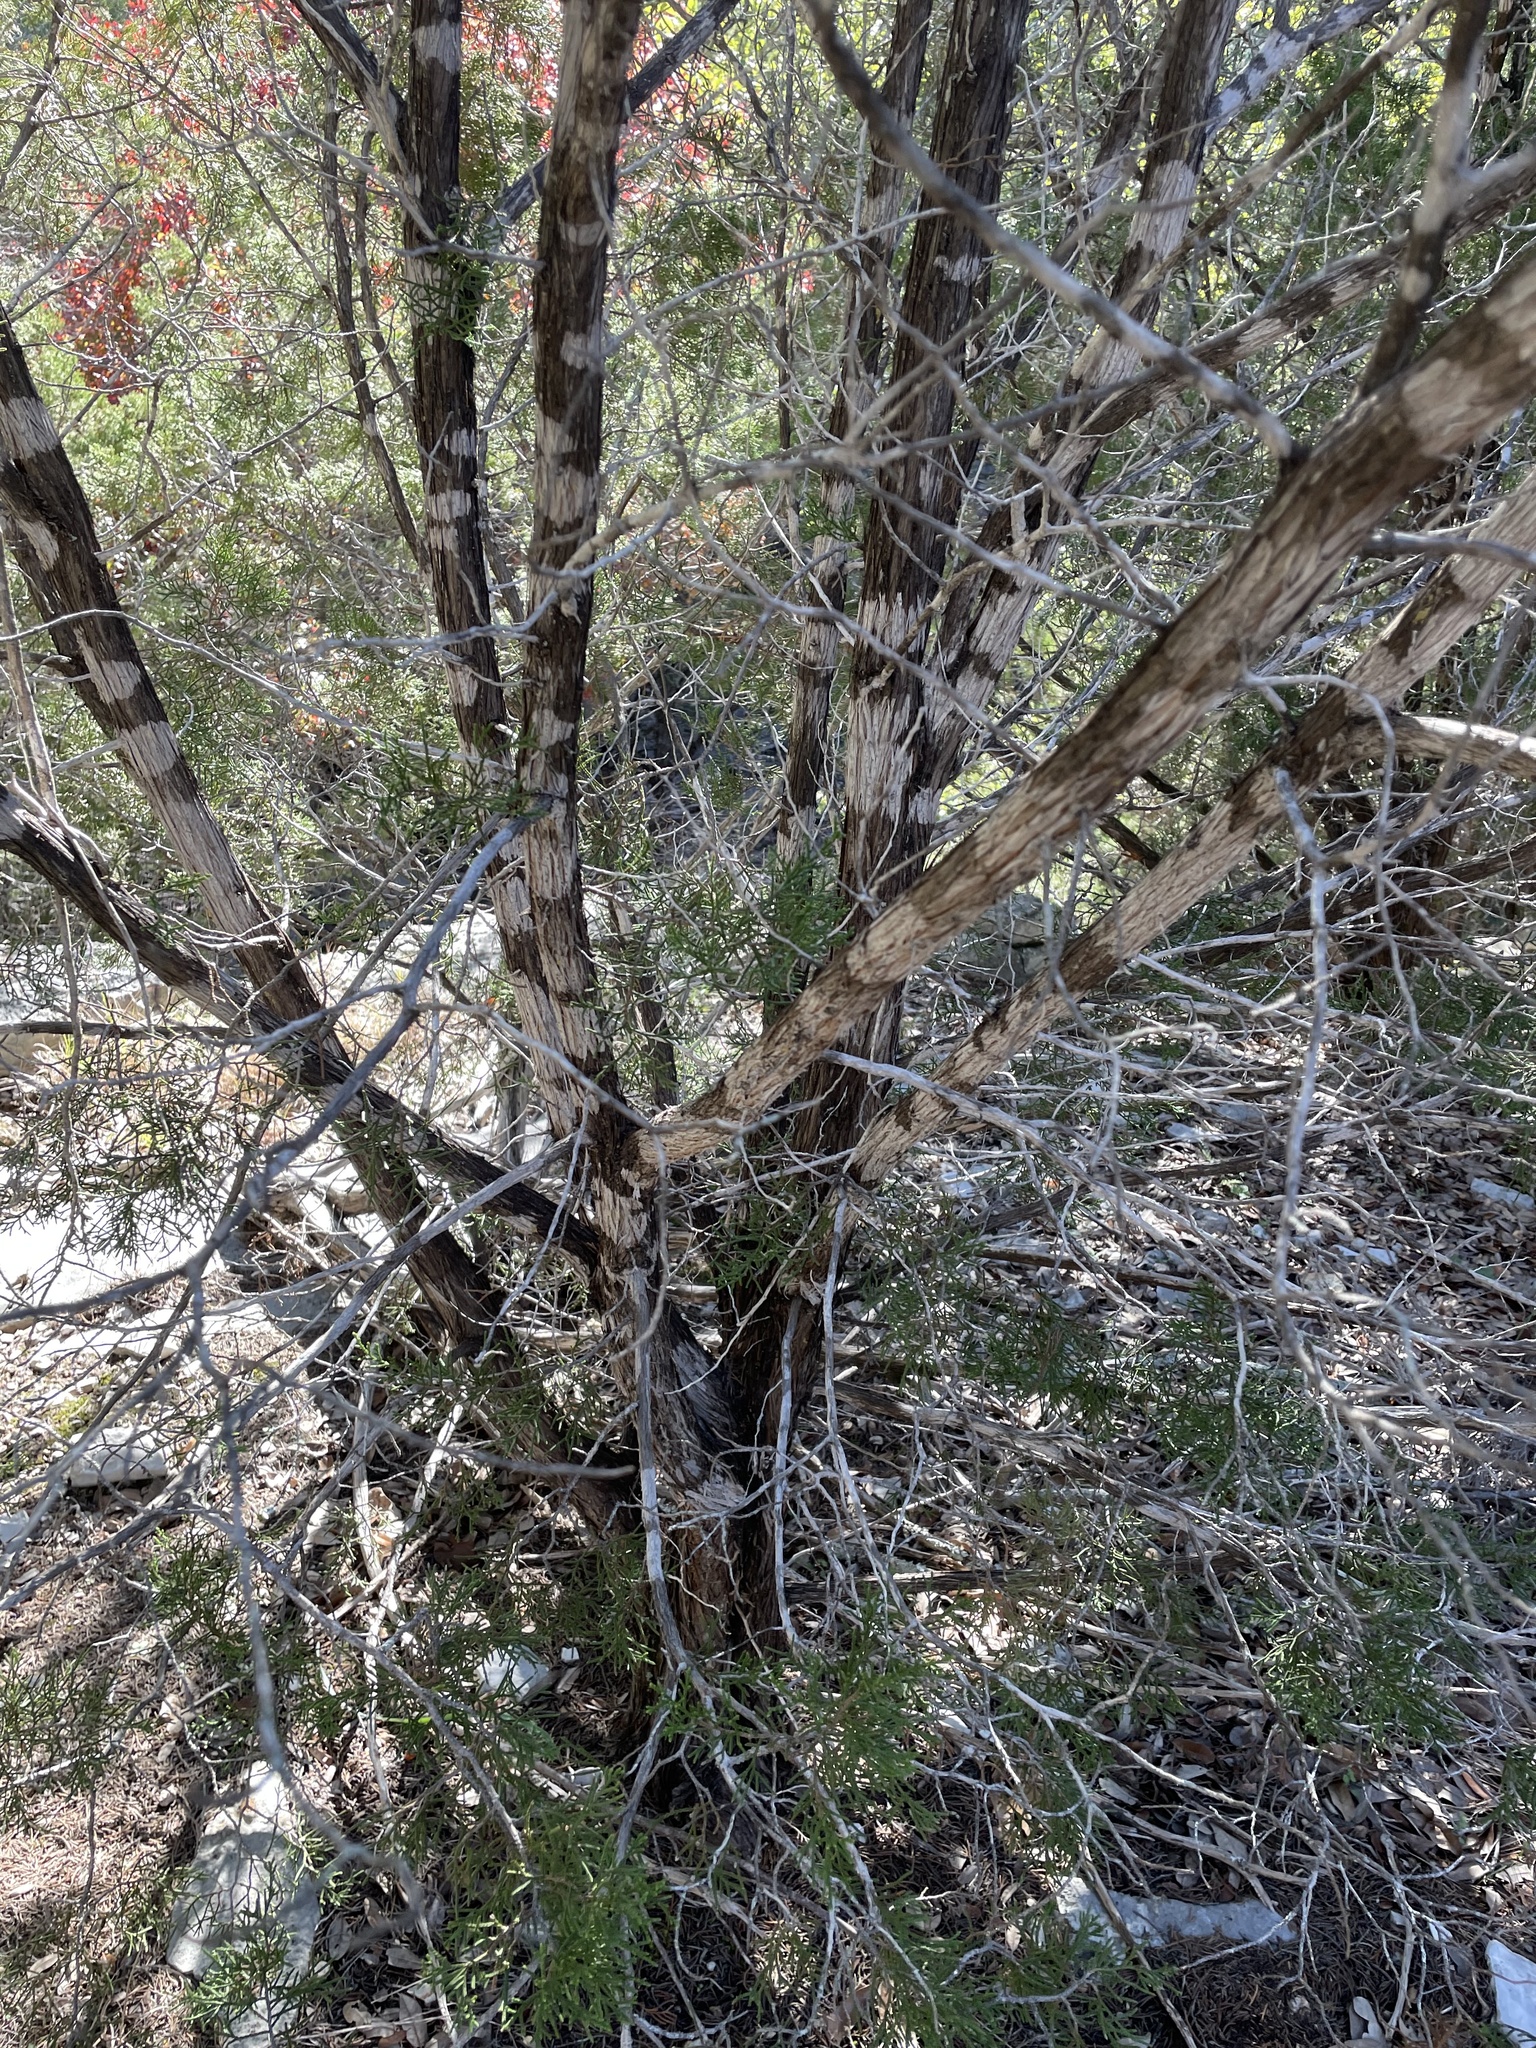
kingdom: Fungi
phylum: Ascomycota
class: Lecanoromycetes
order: Ostropales
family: Stictidaceae
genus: Robergea
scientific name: Robergea
